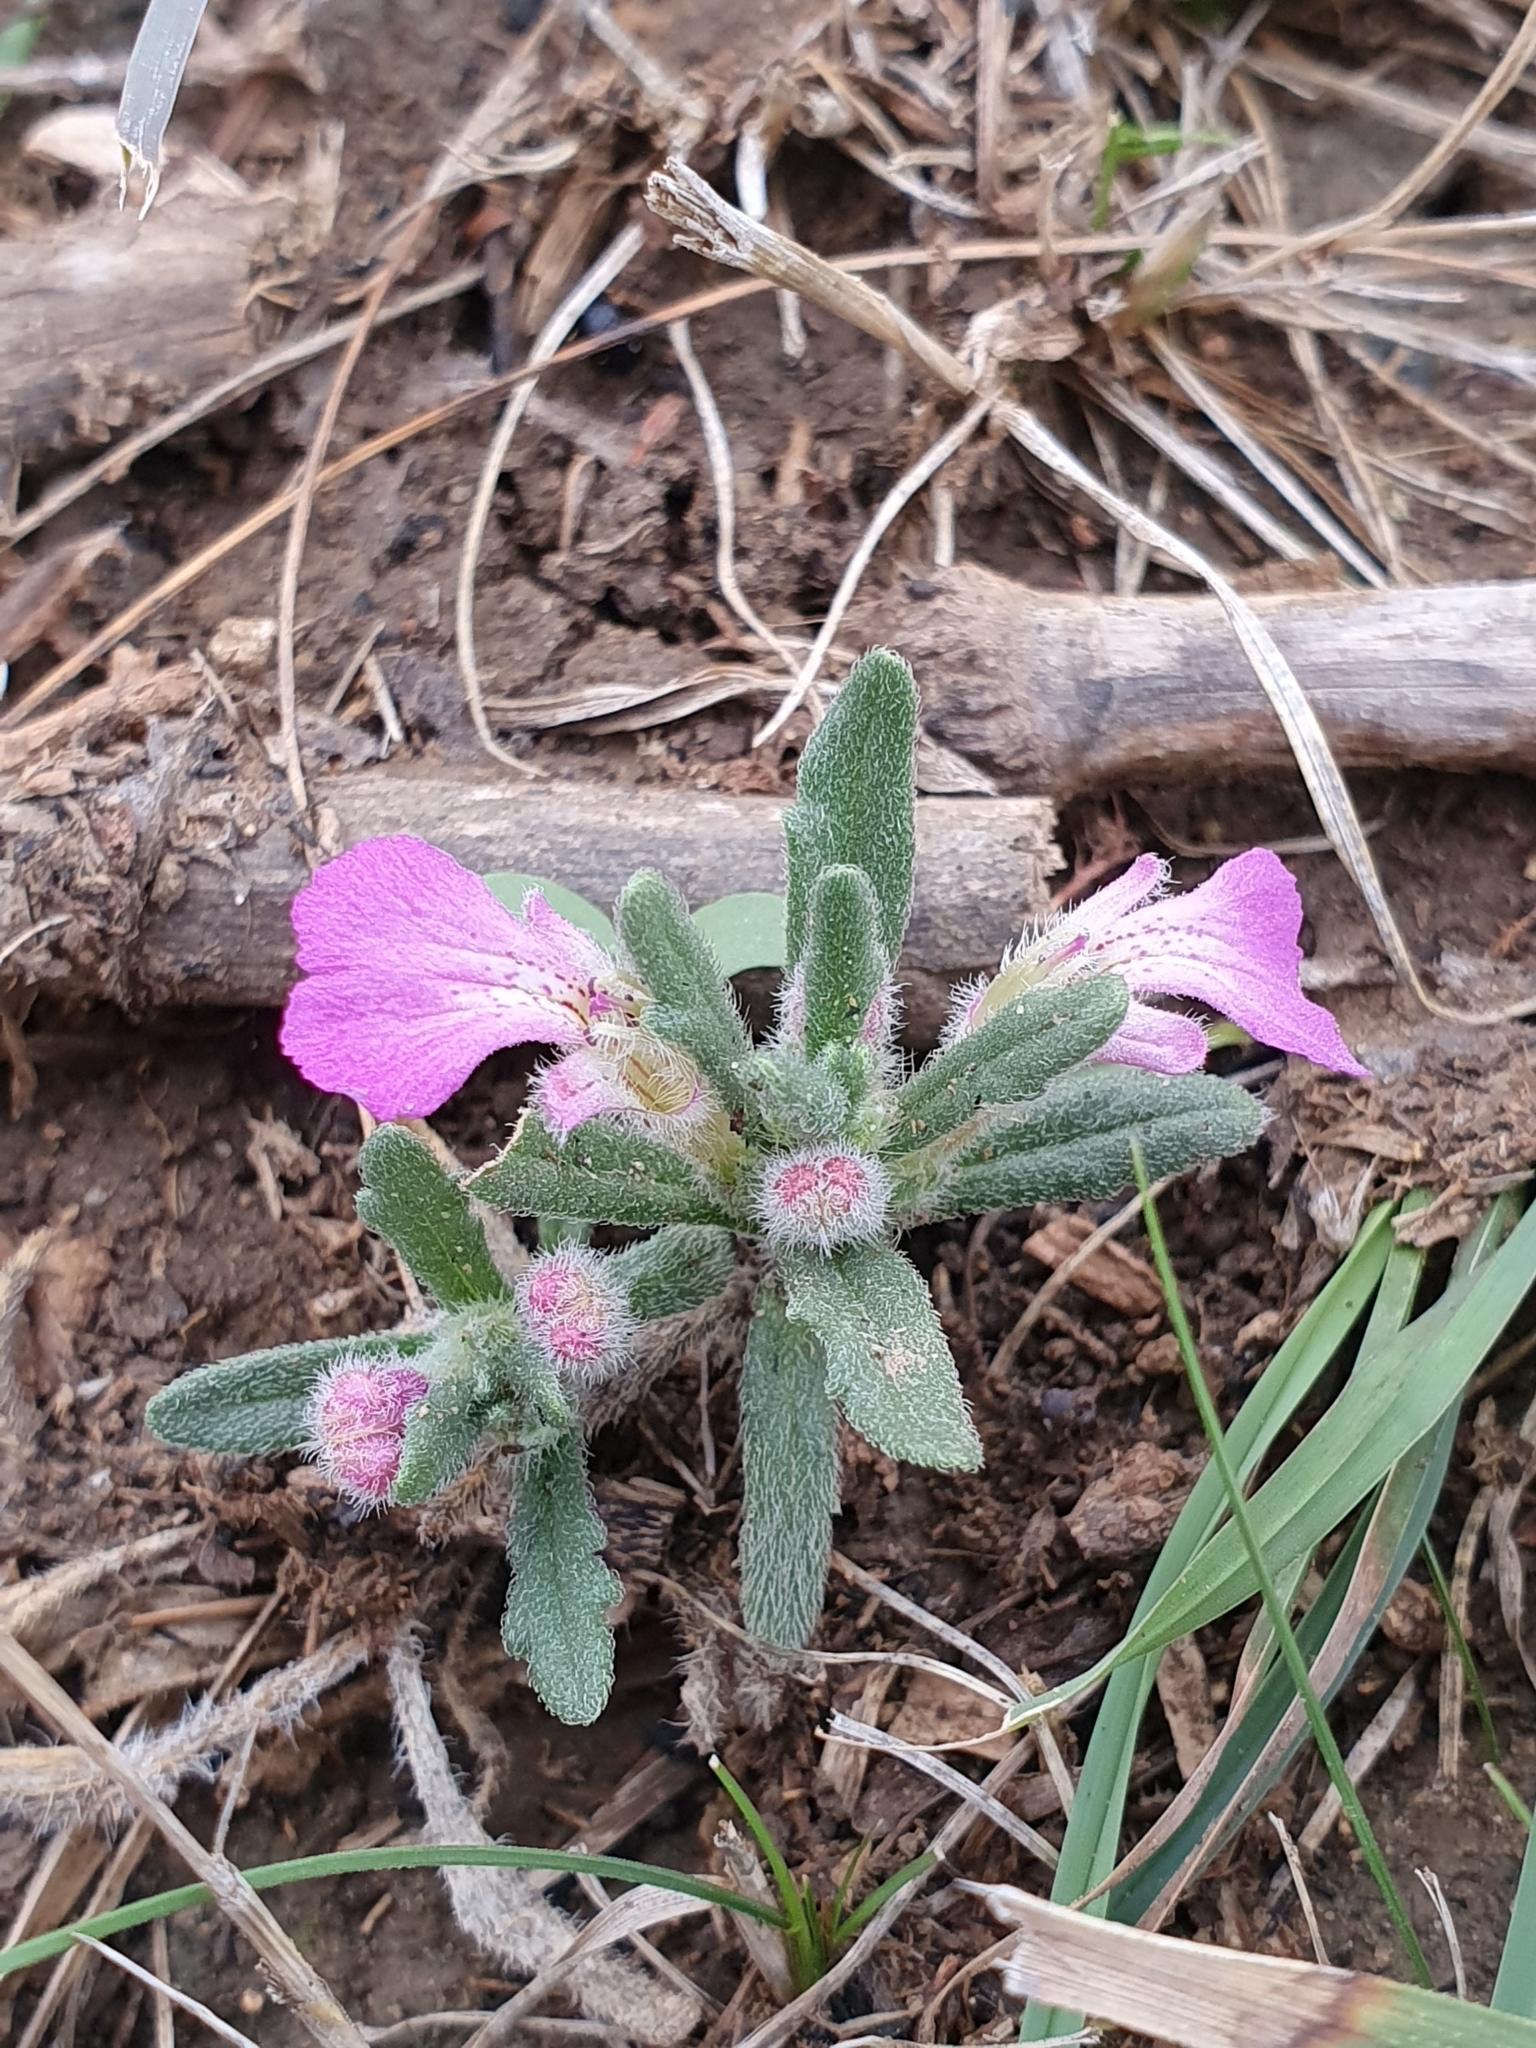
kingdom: Plantae
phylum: Tracheophyta
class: Magnoliopsida
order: Lamiales
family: Lamiaceae
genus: Ajuga
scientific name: Ajuga iva
